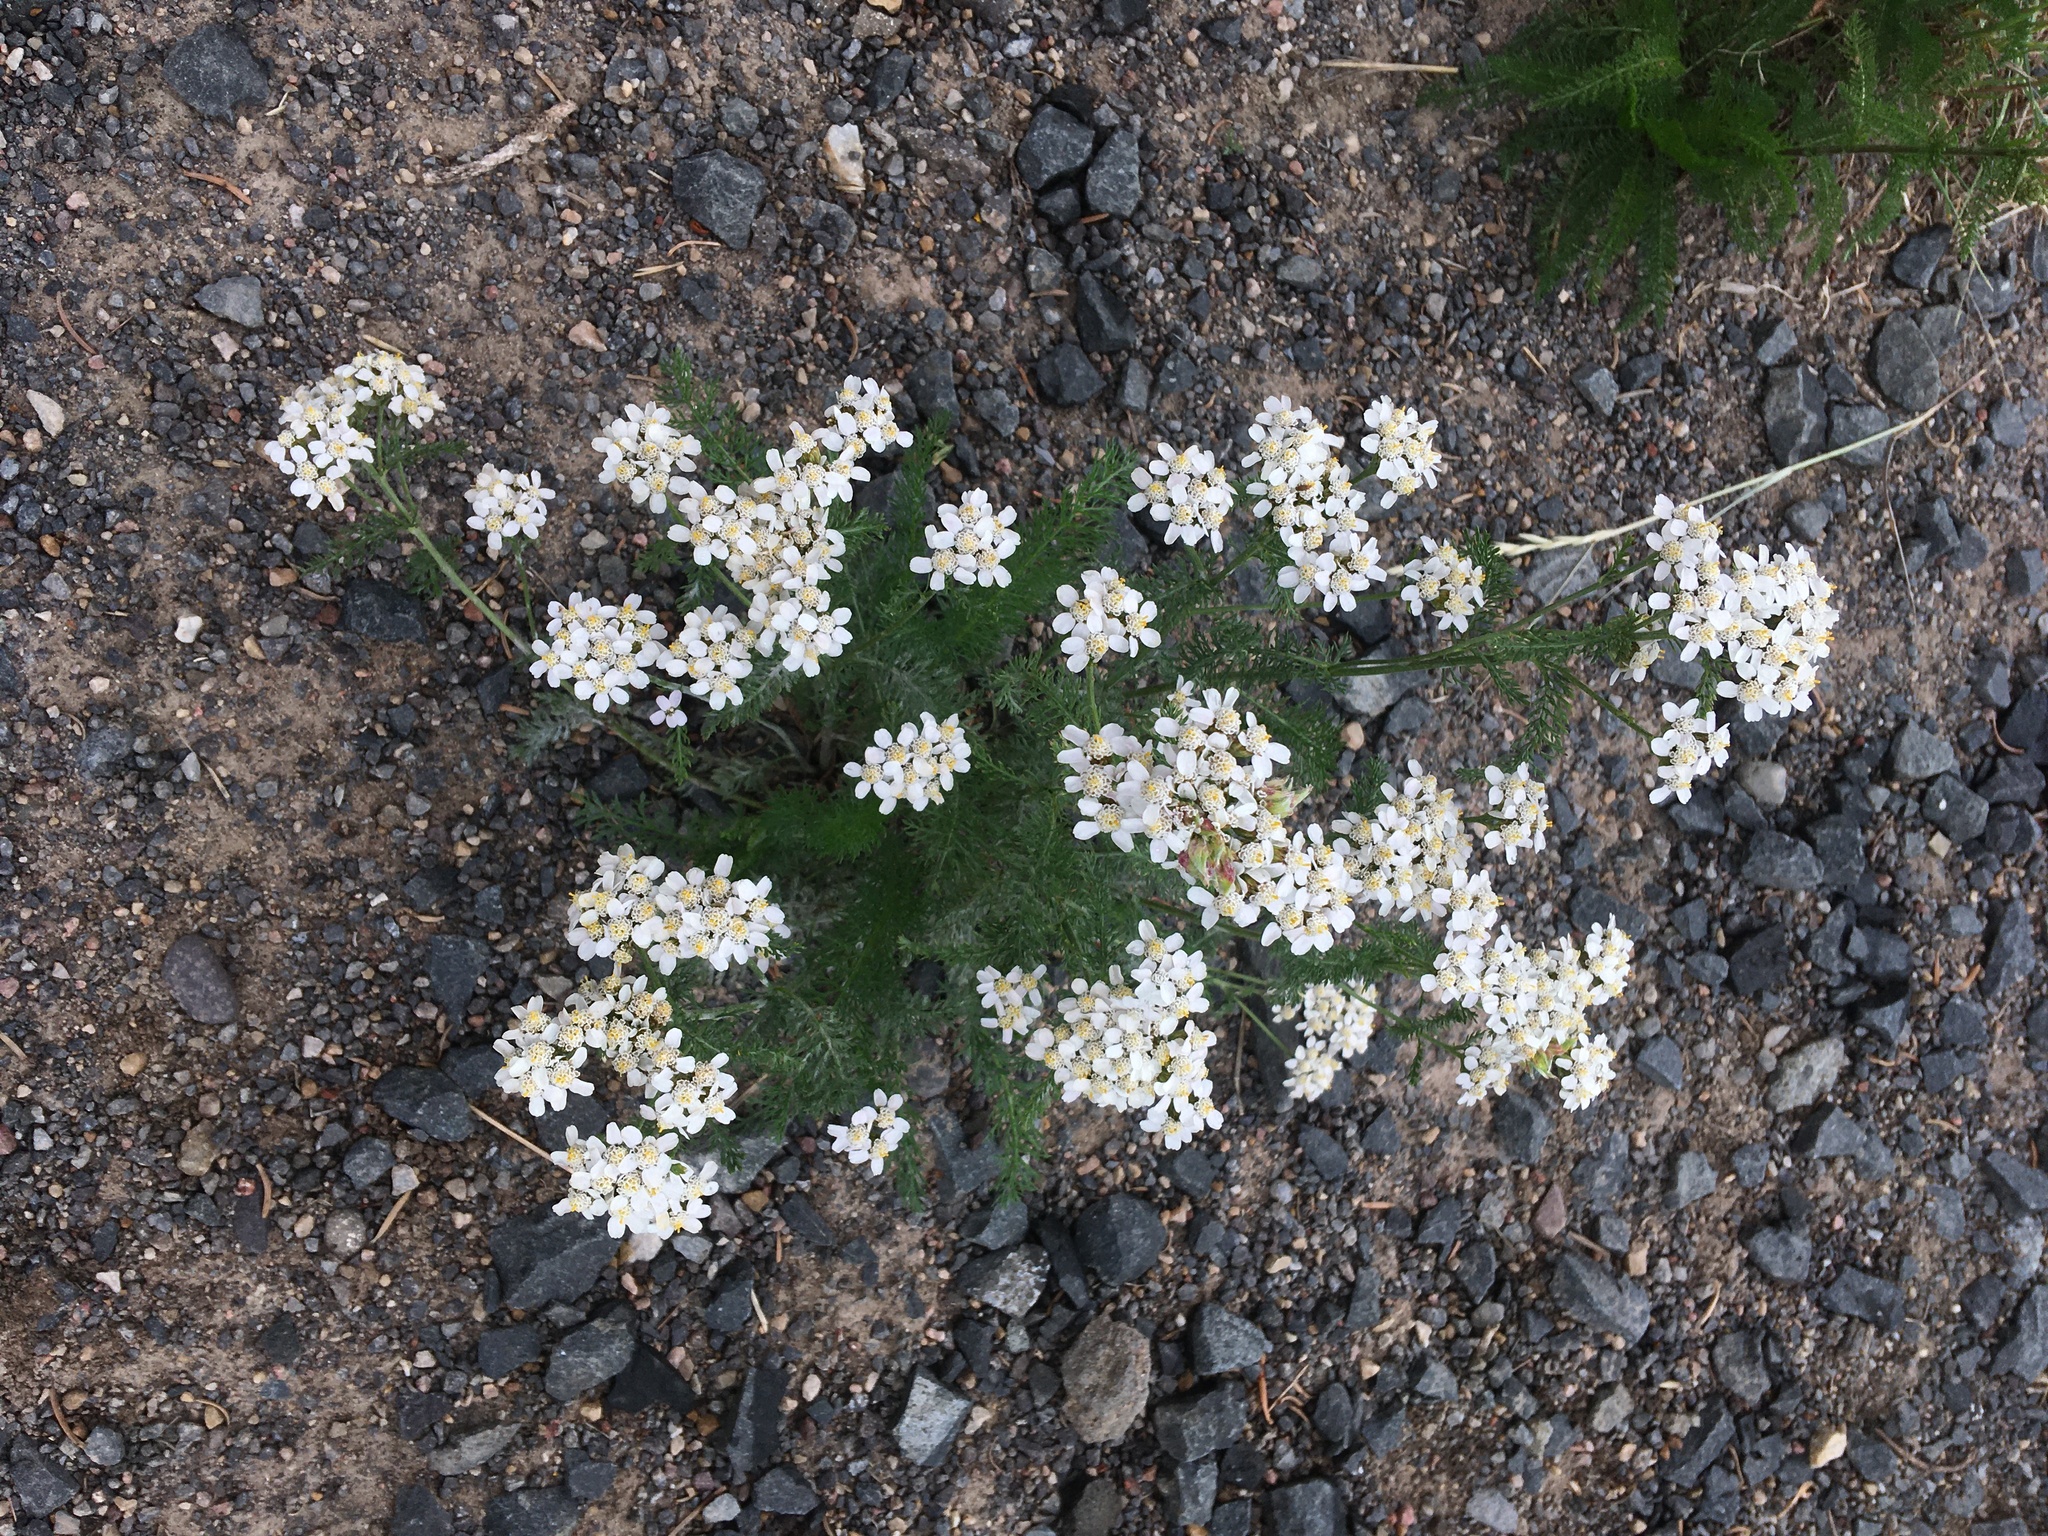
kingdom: Plantae
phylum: Tracheophyta
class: Magnoliopsida
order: Asterales
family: Asteraceae
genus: Achillea
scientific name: Achillea millefolium
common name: Yarrow
